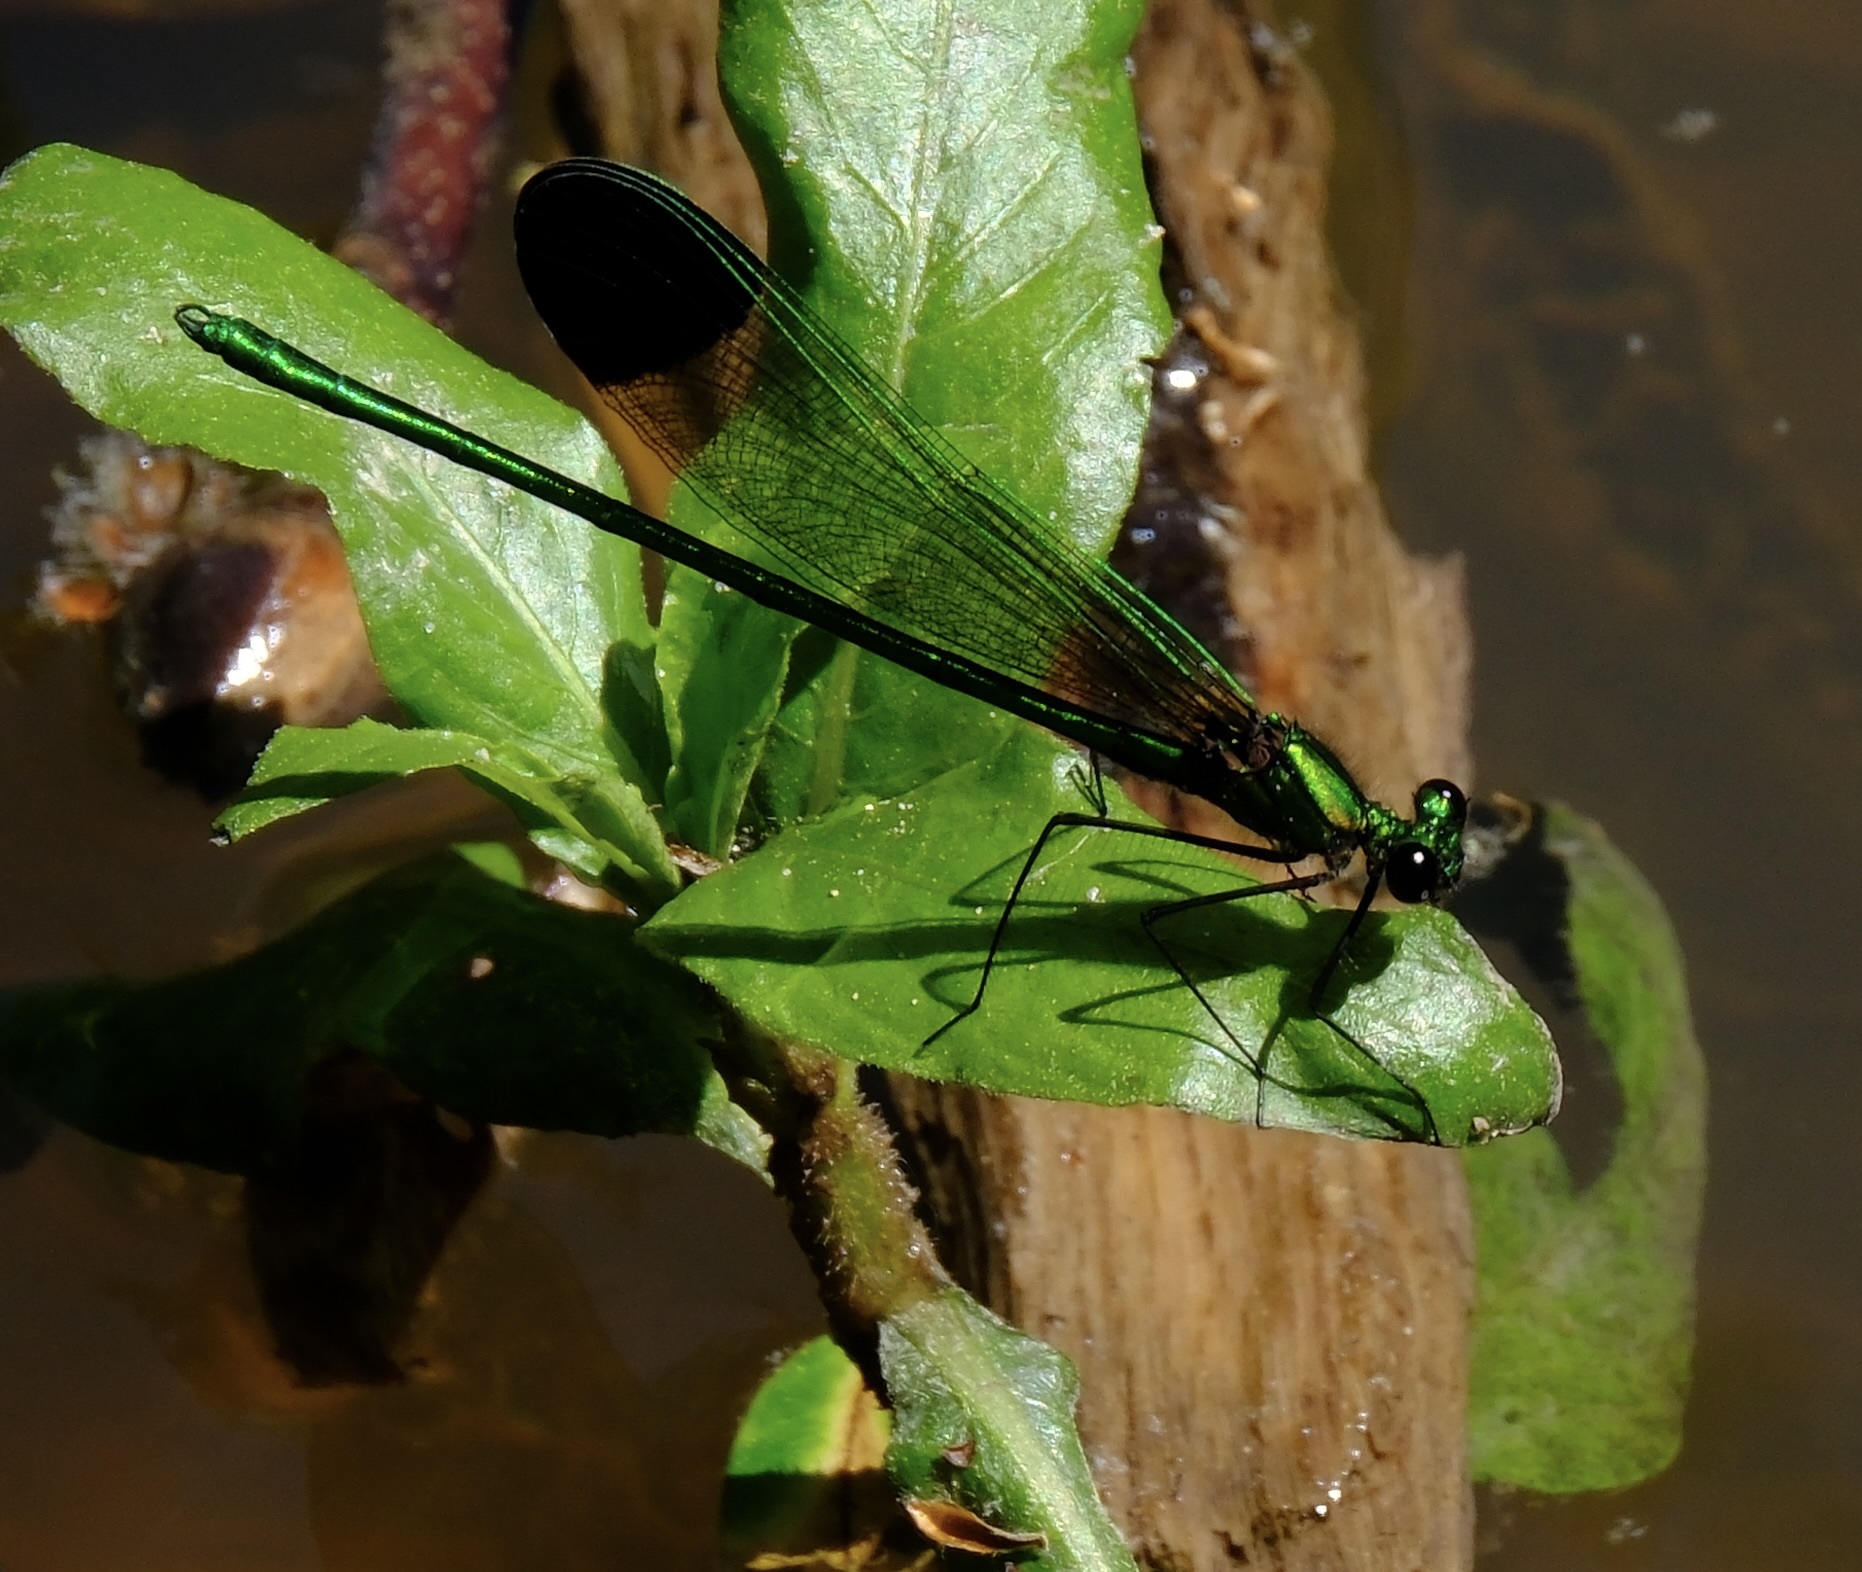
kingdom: Animalia
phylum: Arthropoda
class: Insecta
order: Odonata
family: Calopterygidae
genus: Calopteryx
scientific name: Calopteryx dimidiata
